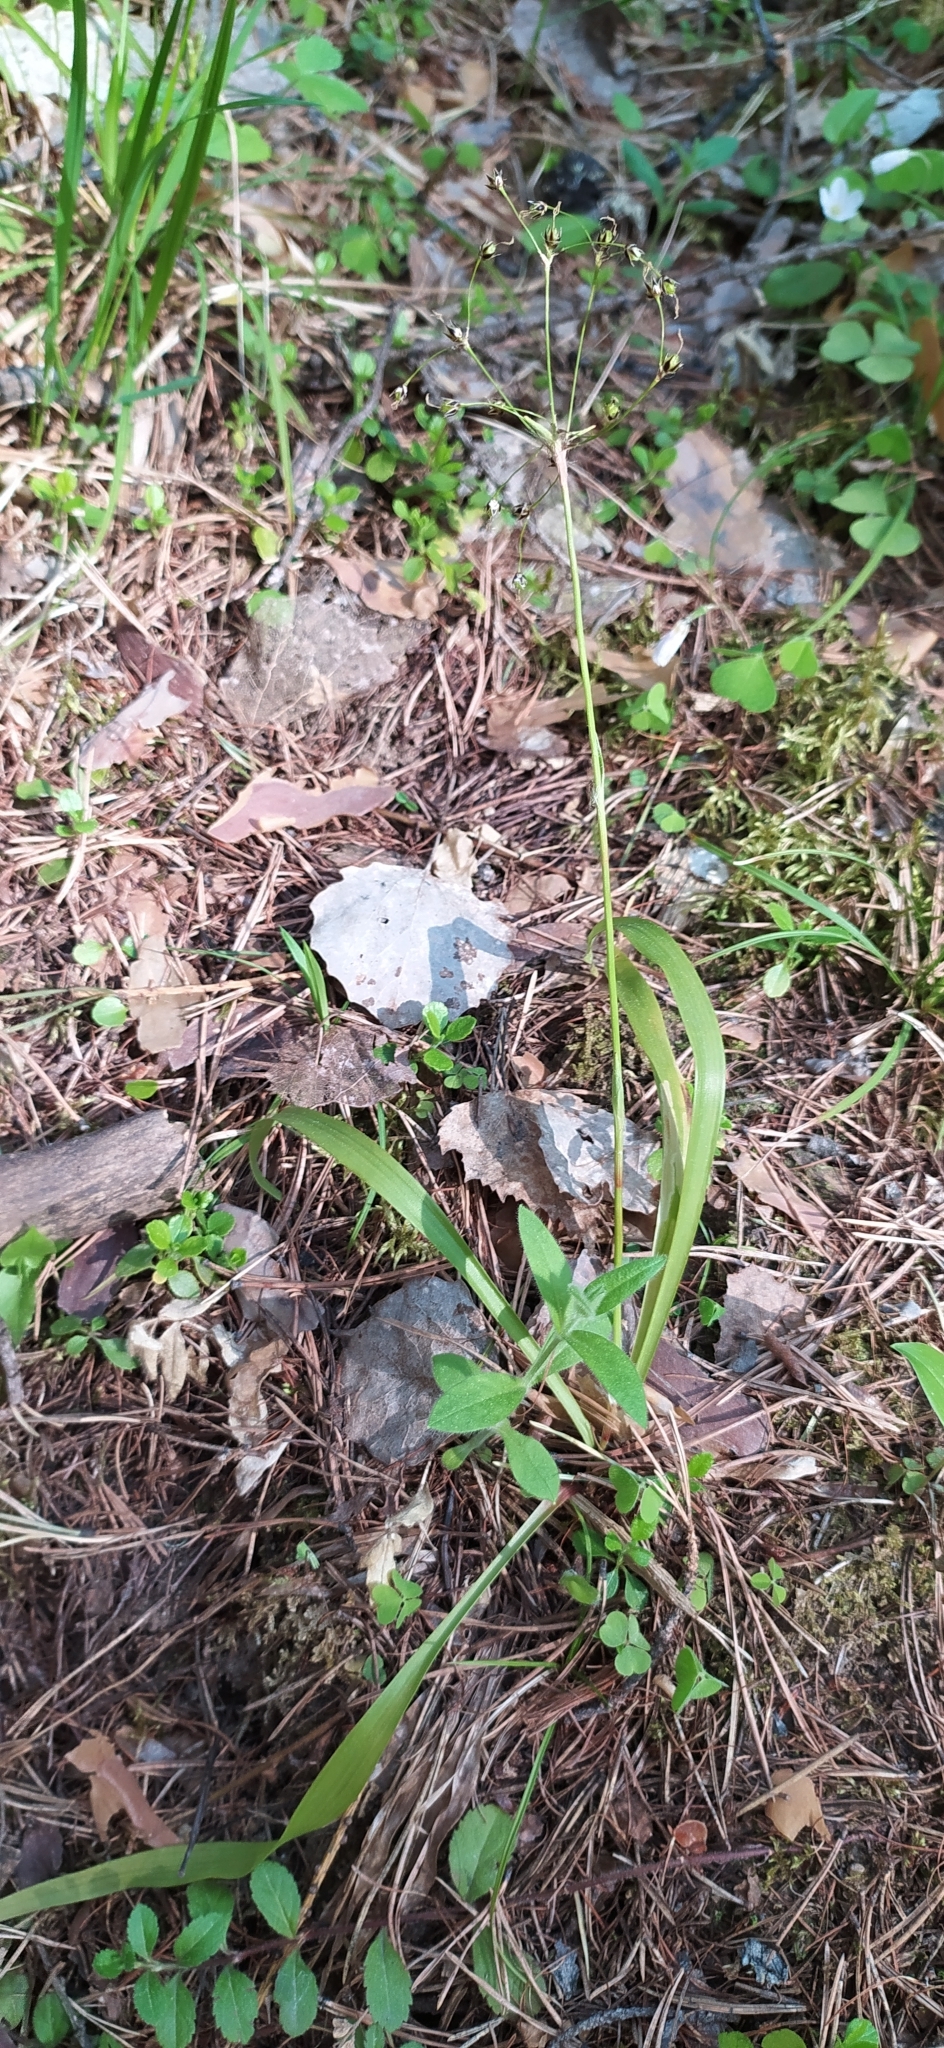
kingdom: Plantae
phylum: Tracheophyta
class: Liliopsida
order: Poales
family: Juncaceae
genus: Luzula
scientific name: Luzula pilosa
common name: Hairy wood-rush
